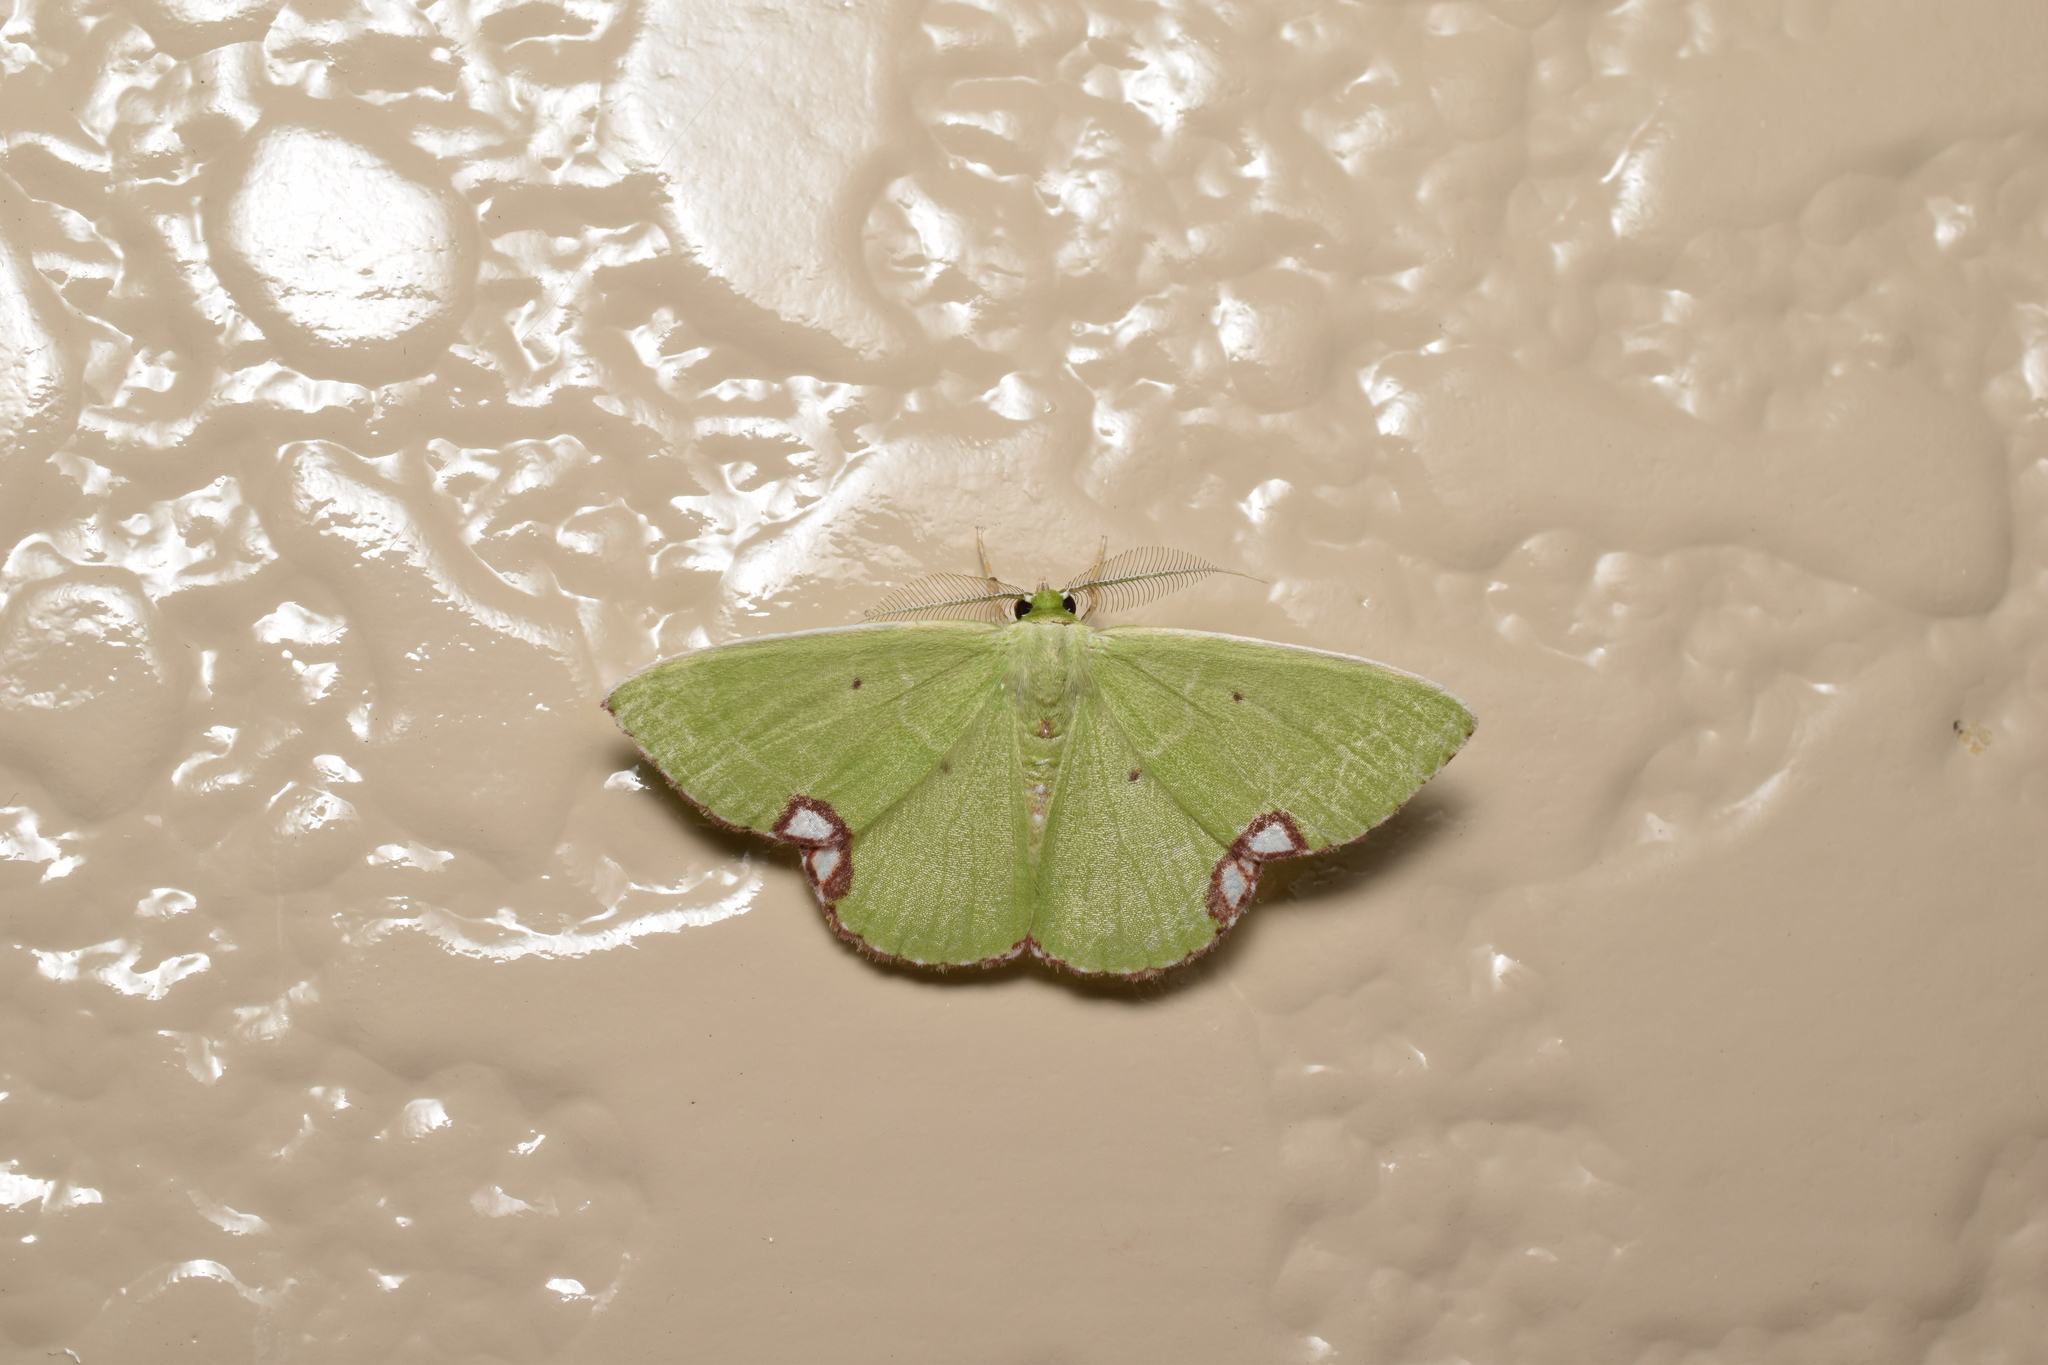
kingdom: Animalia
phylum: Arthropoda
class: Insecta
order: Lepidoptera
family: Geometridae
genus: Comibaena
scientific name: Comibaena procumbaria
